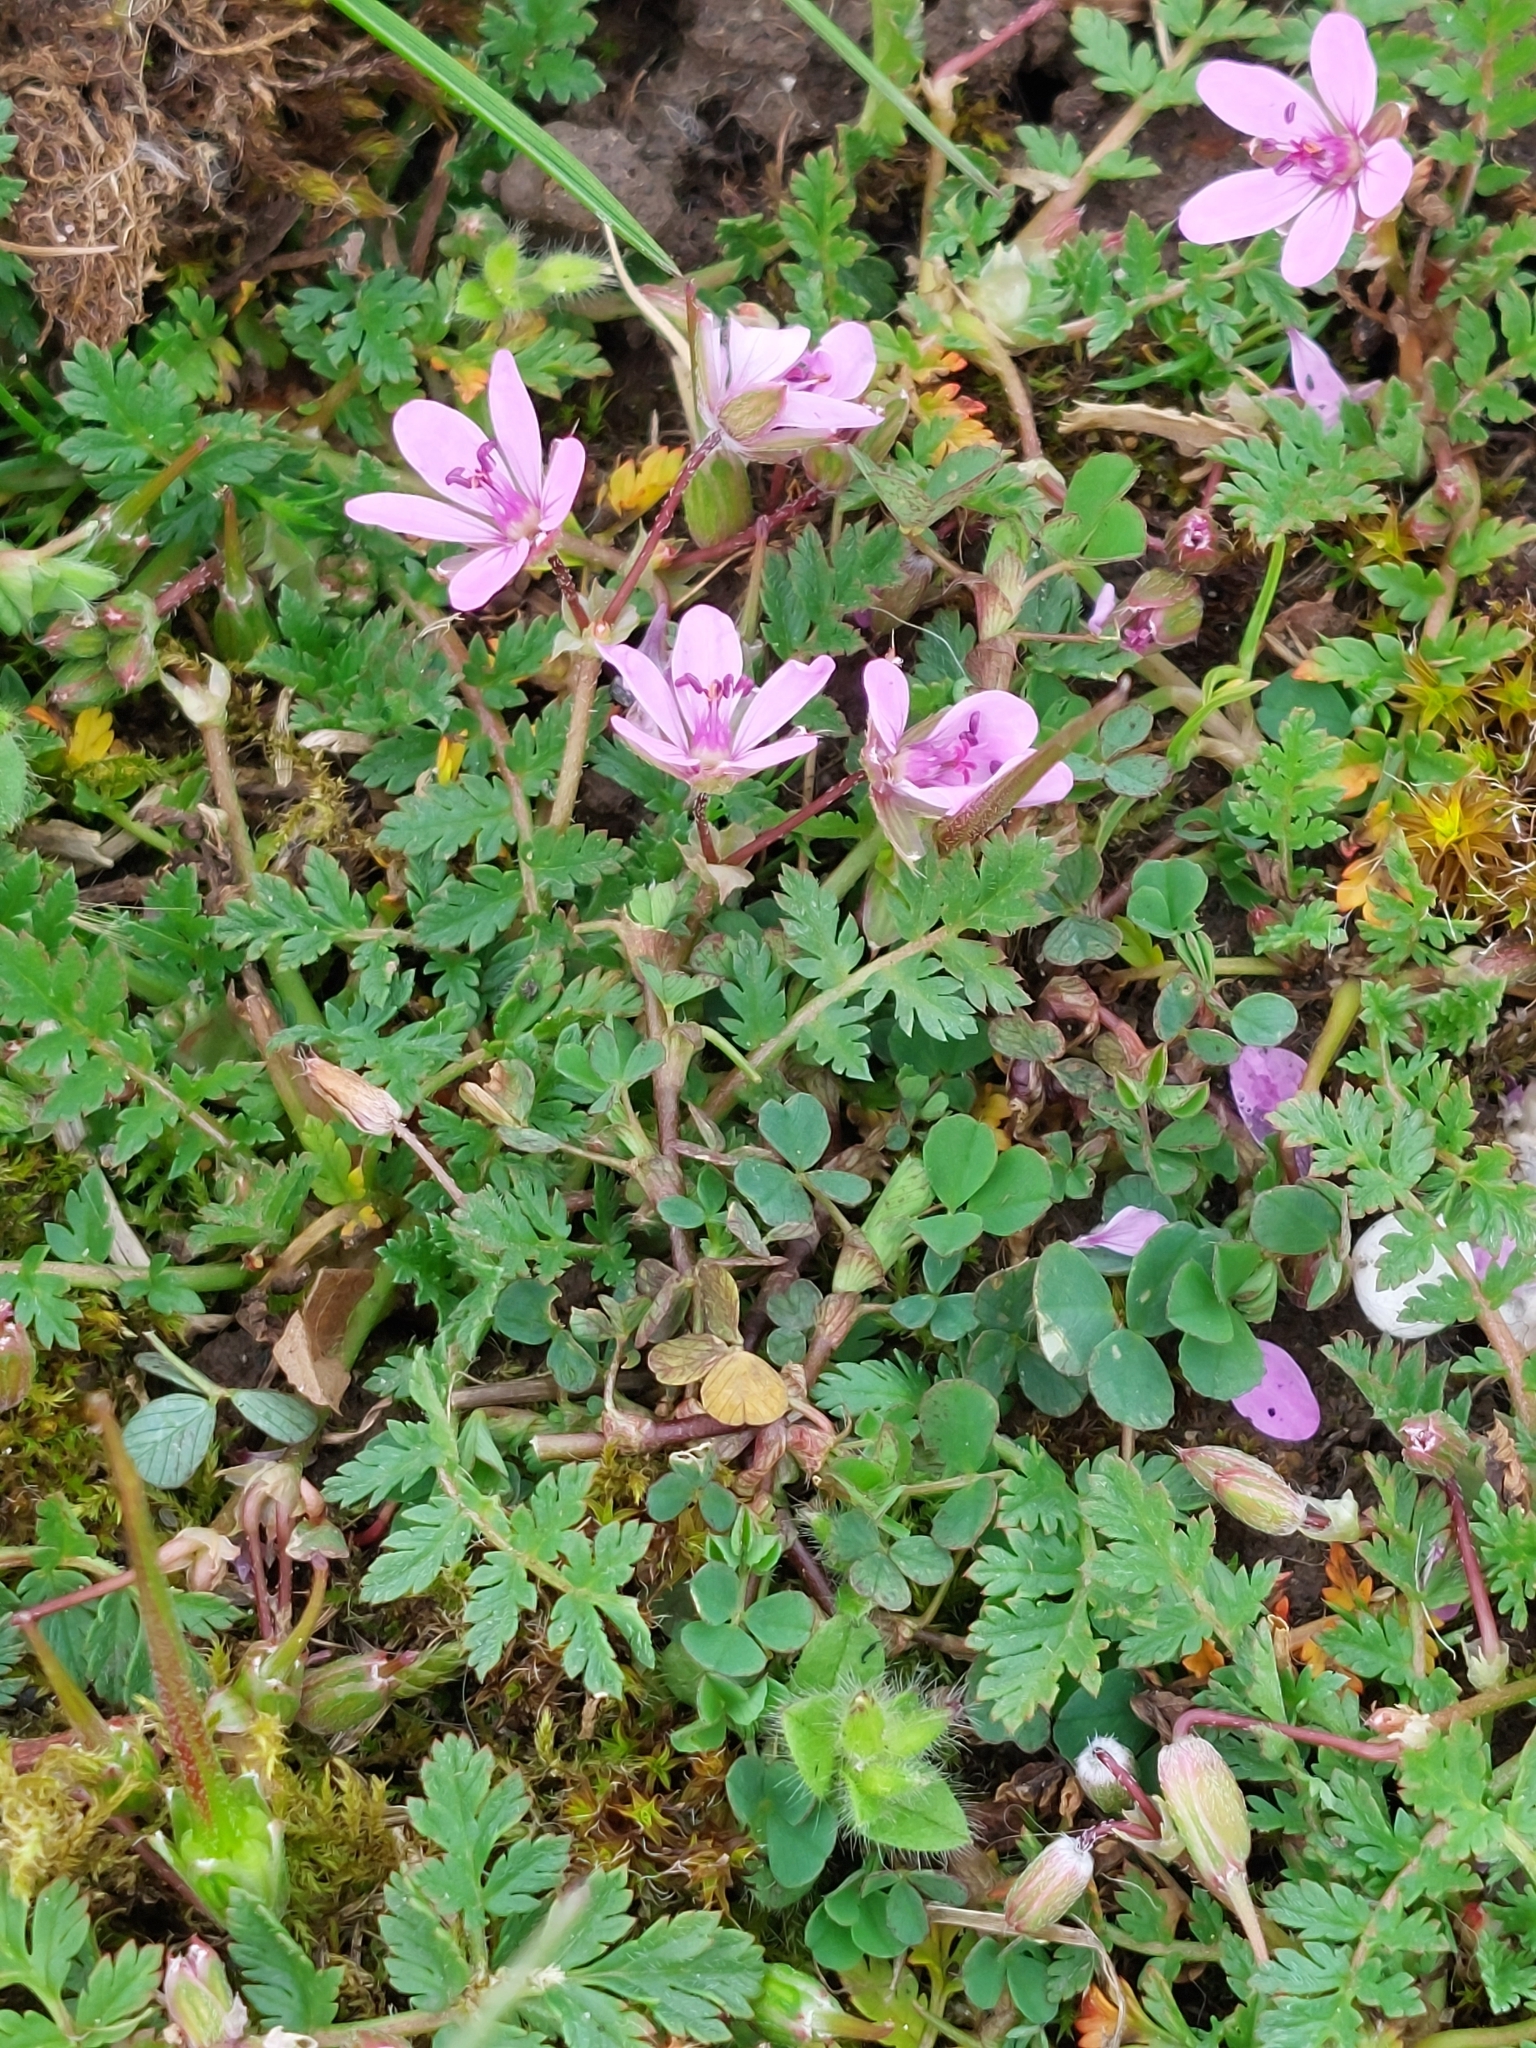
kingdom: Plantae
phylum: Tracheophyta
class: Magnoliopsida
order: Geraniales
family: Geraniaceae
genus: Erodium
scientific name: Erodium cicutarium
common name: Common stork's-bill
